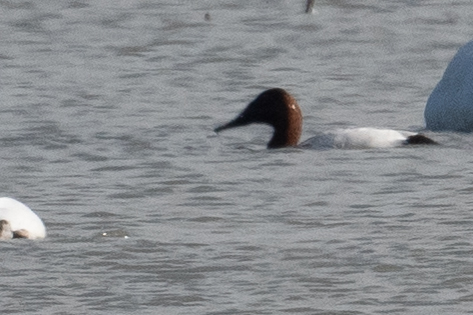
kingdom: Animalia
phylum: Chordata
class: Aves
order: Anseriformes
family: Anatidae
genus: Aythya
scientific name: Aythya valisineria
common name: Canvasback
